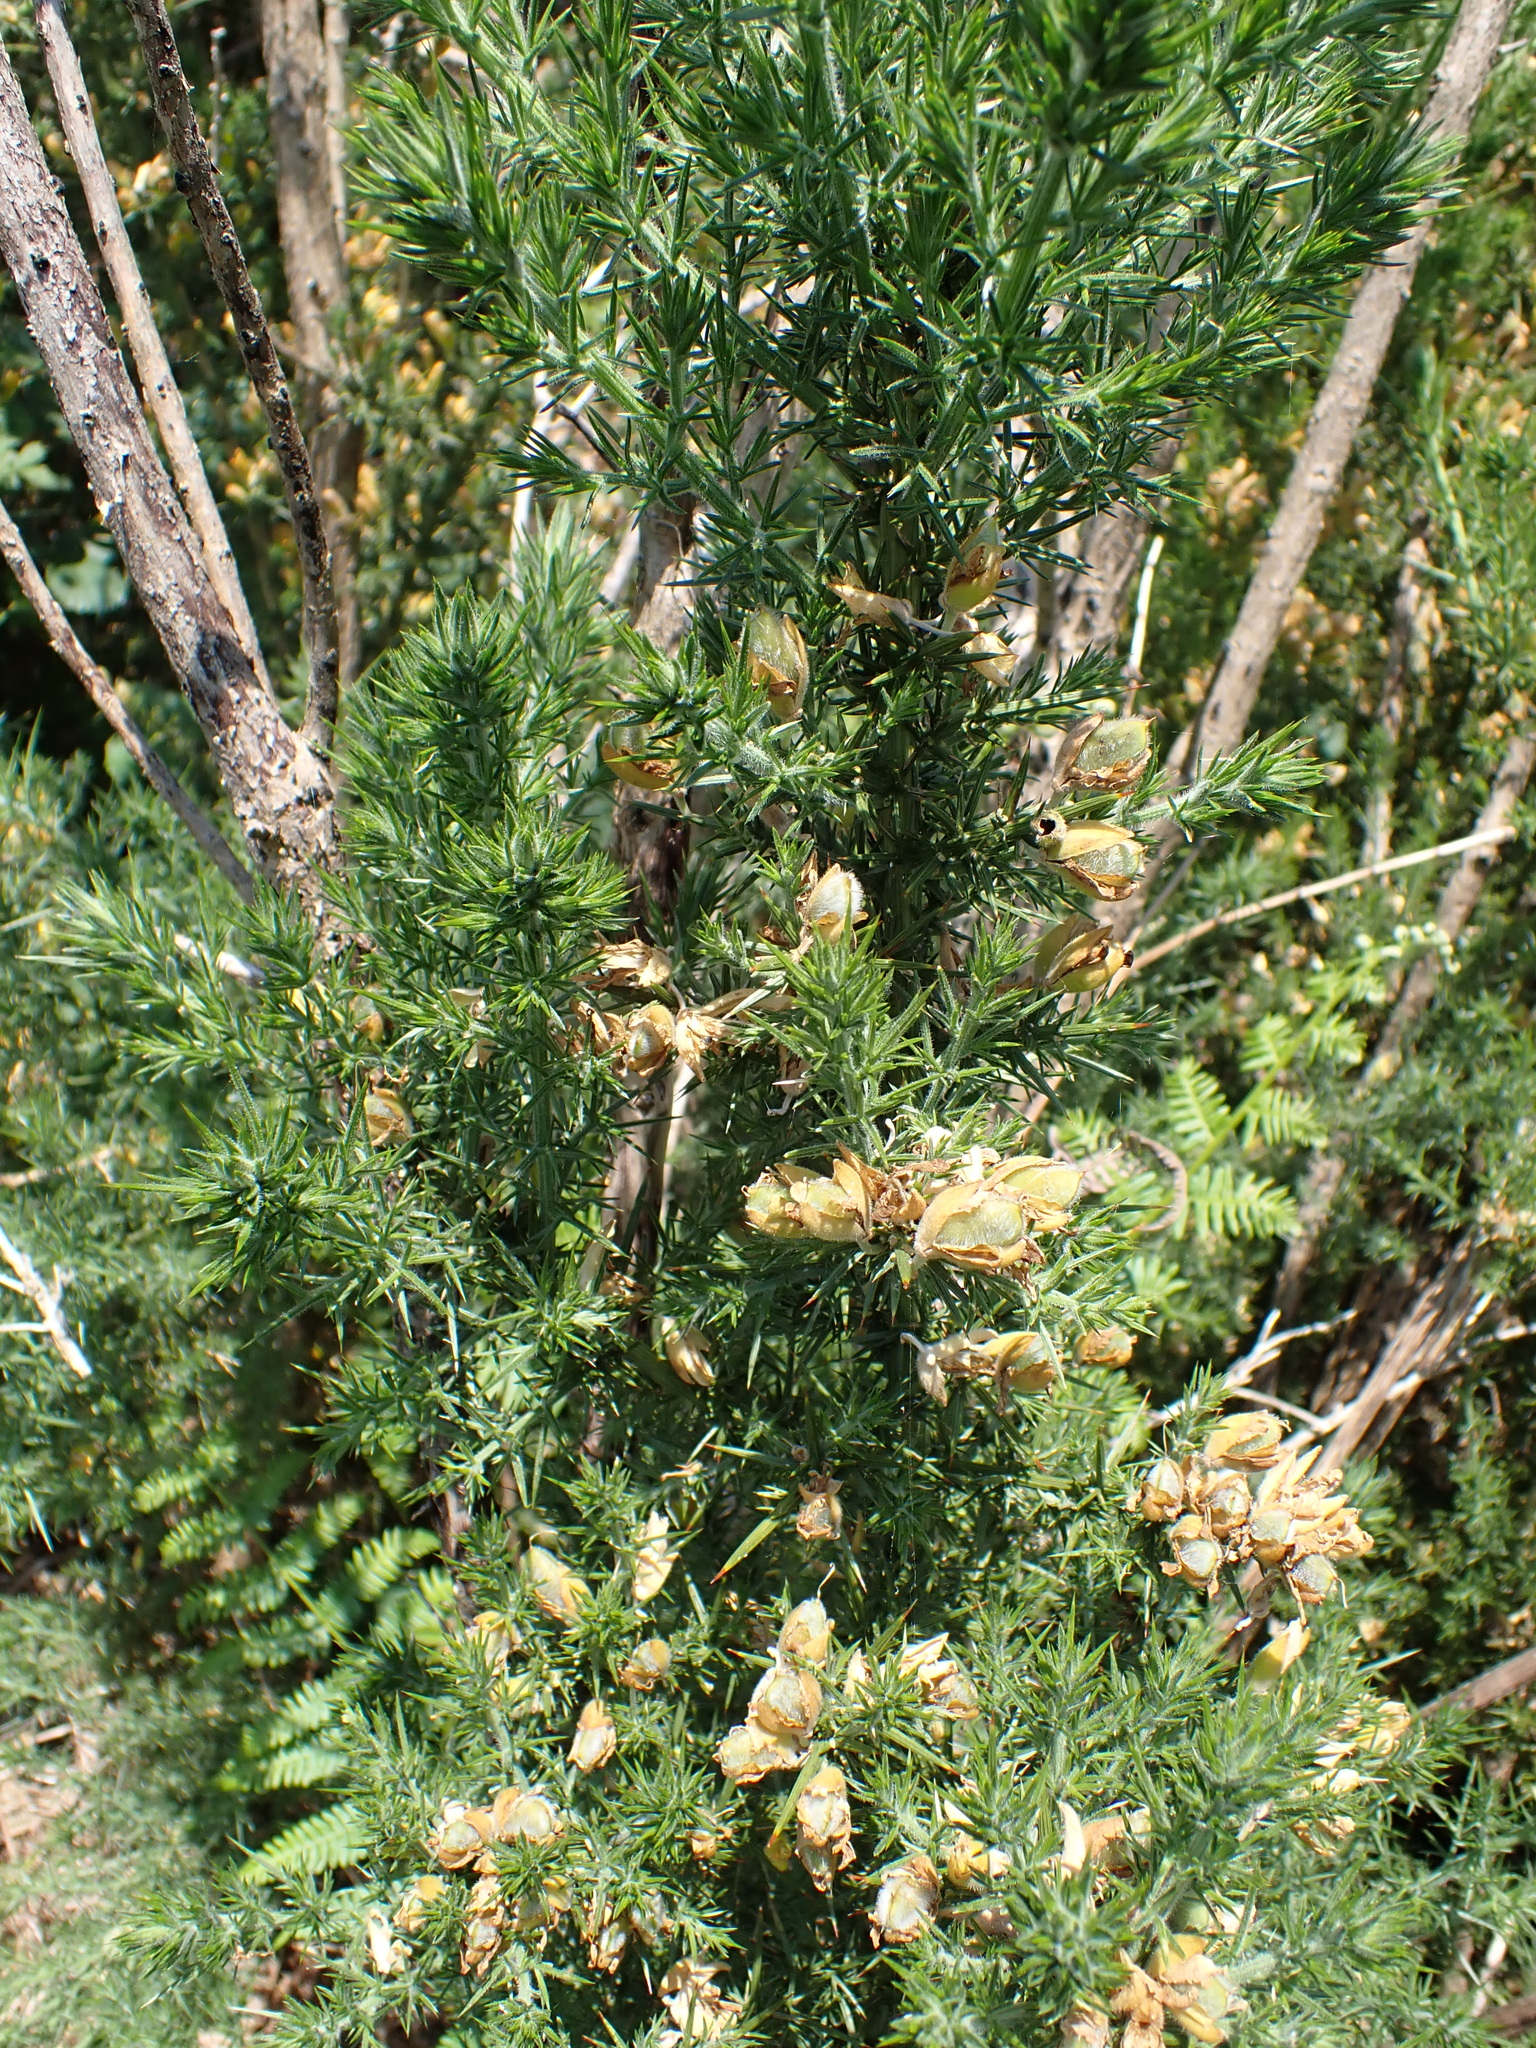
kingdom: Plantae
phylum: Tracheophyta
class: Magnoliopsida
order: Fabales
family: Fabaceae
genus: Ulex
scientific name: Ulex europaeus
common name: Common gorse
